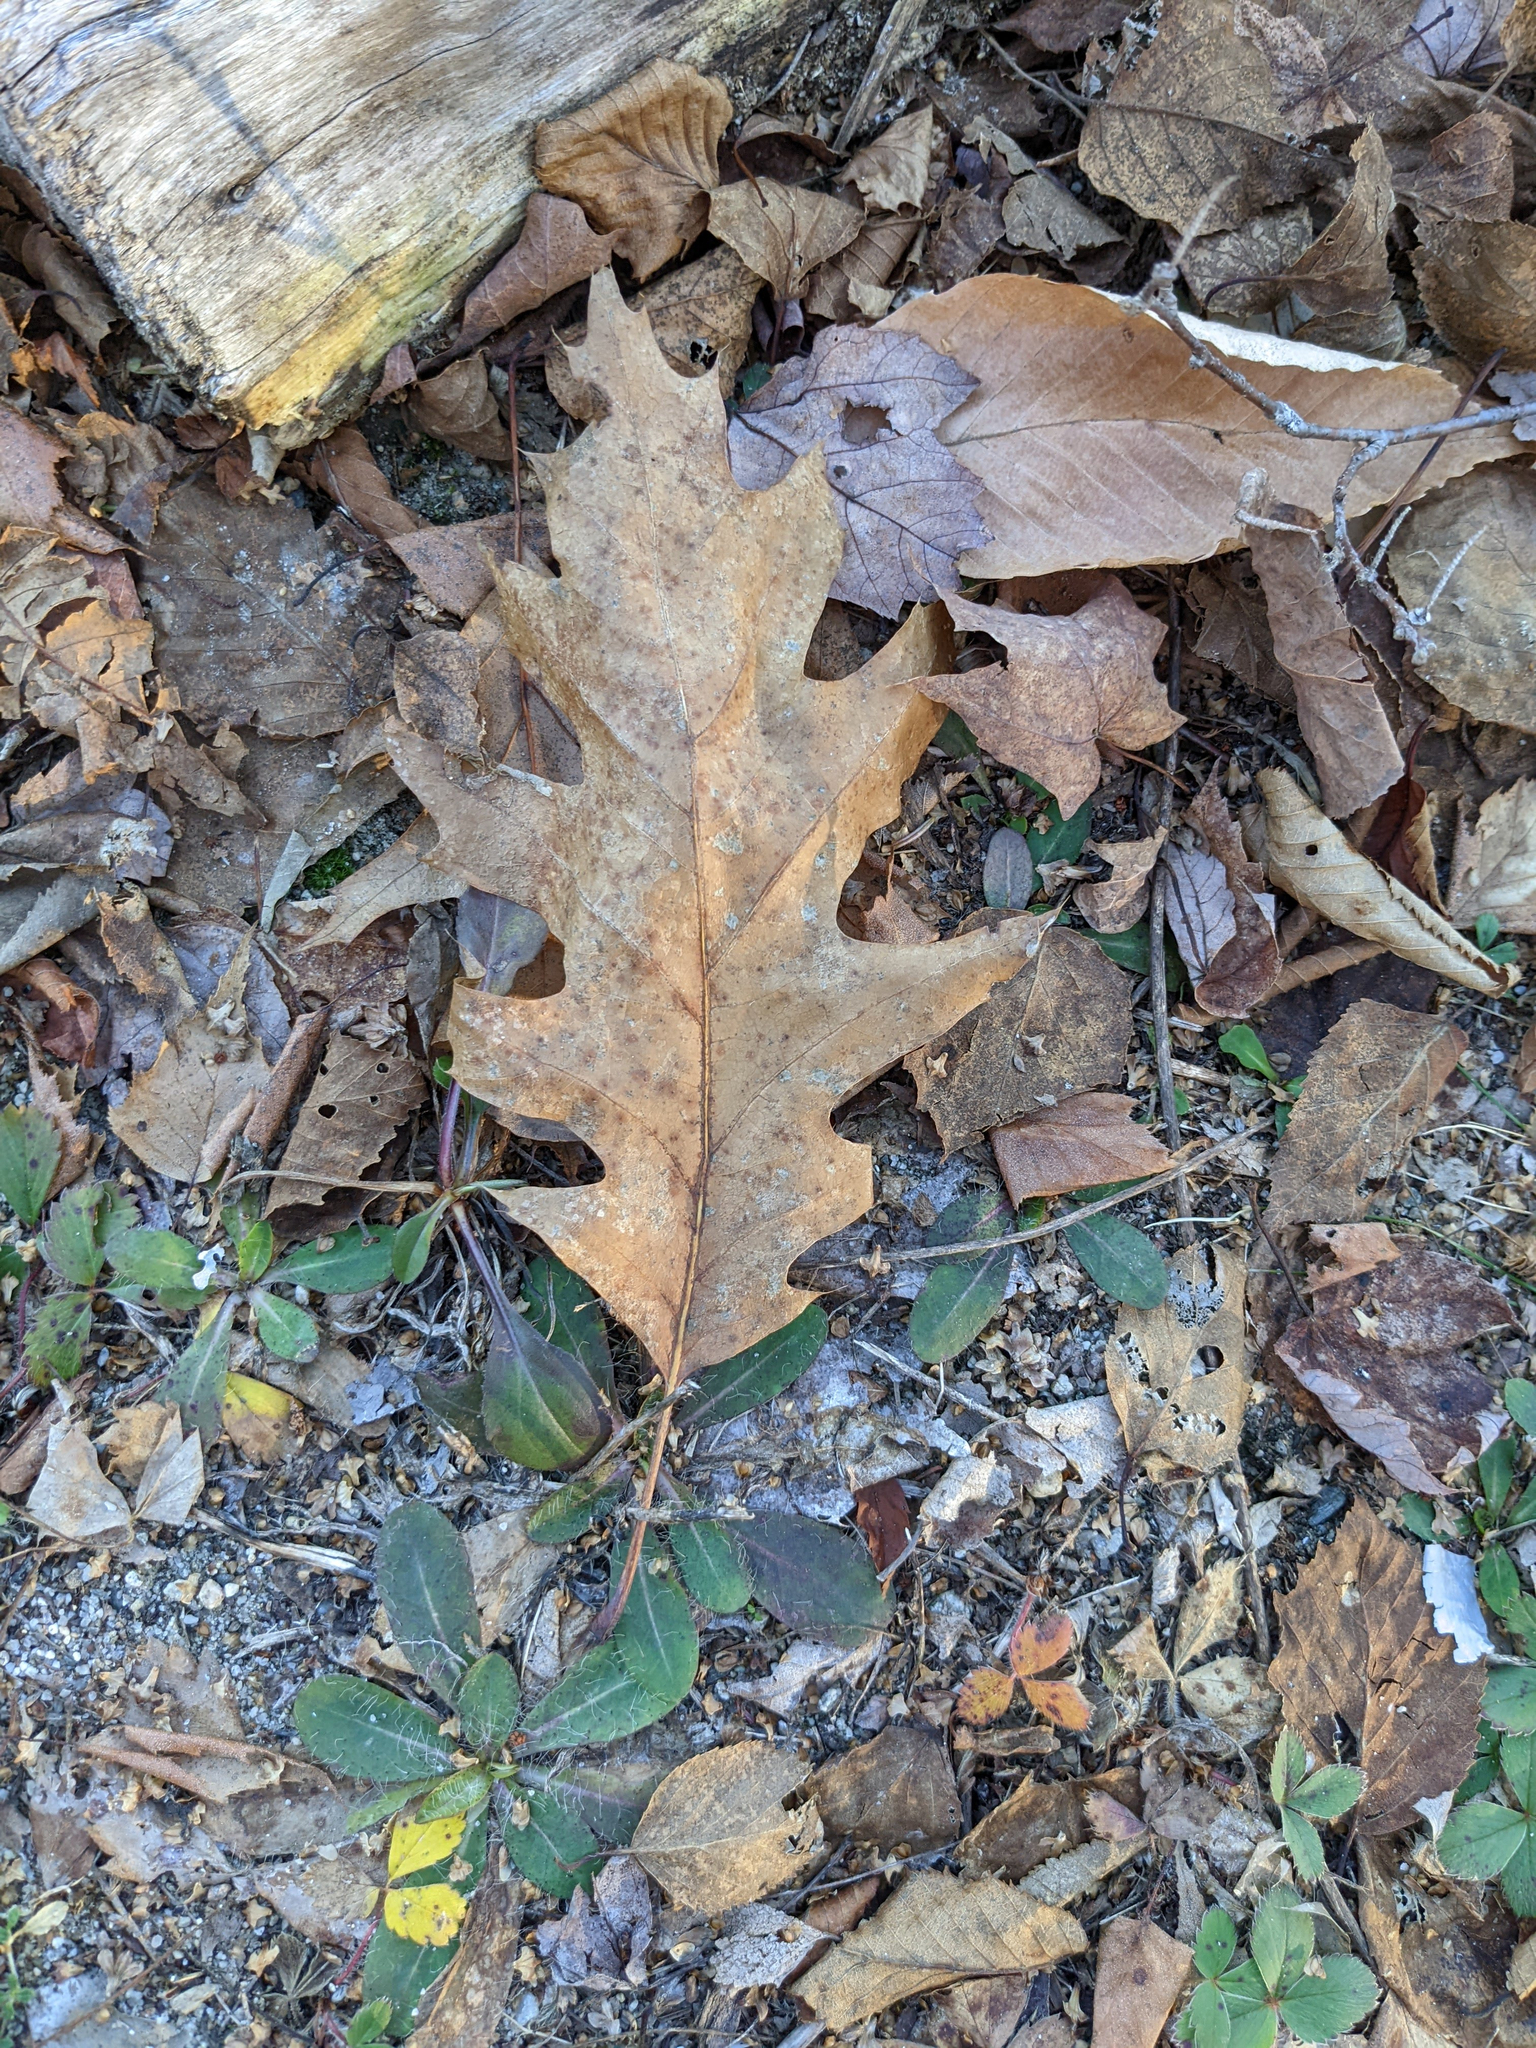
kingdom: Plantae
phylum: Tracheophyta
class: Magnoliopsida
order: Fagales
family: Fagaceae
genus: Quercus
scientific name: Quercus rubra
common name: Red oak
